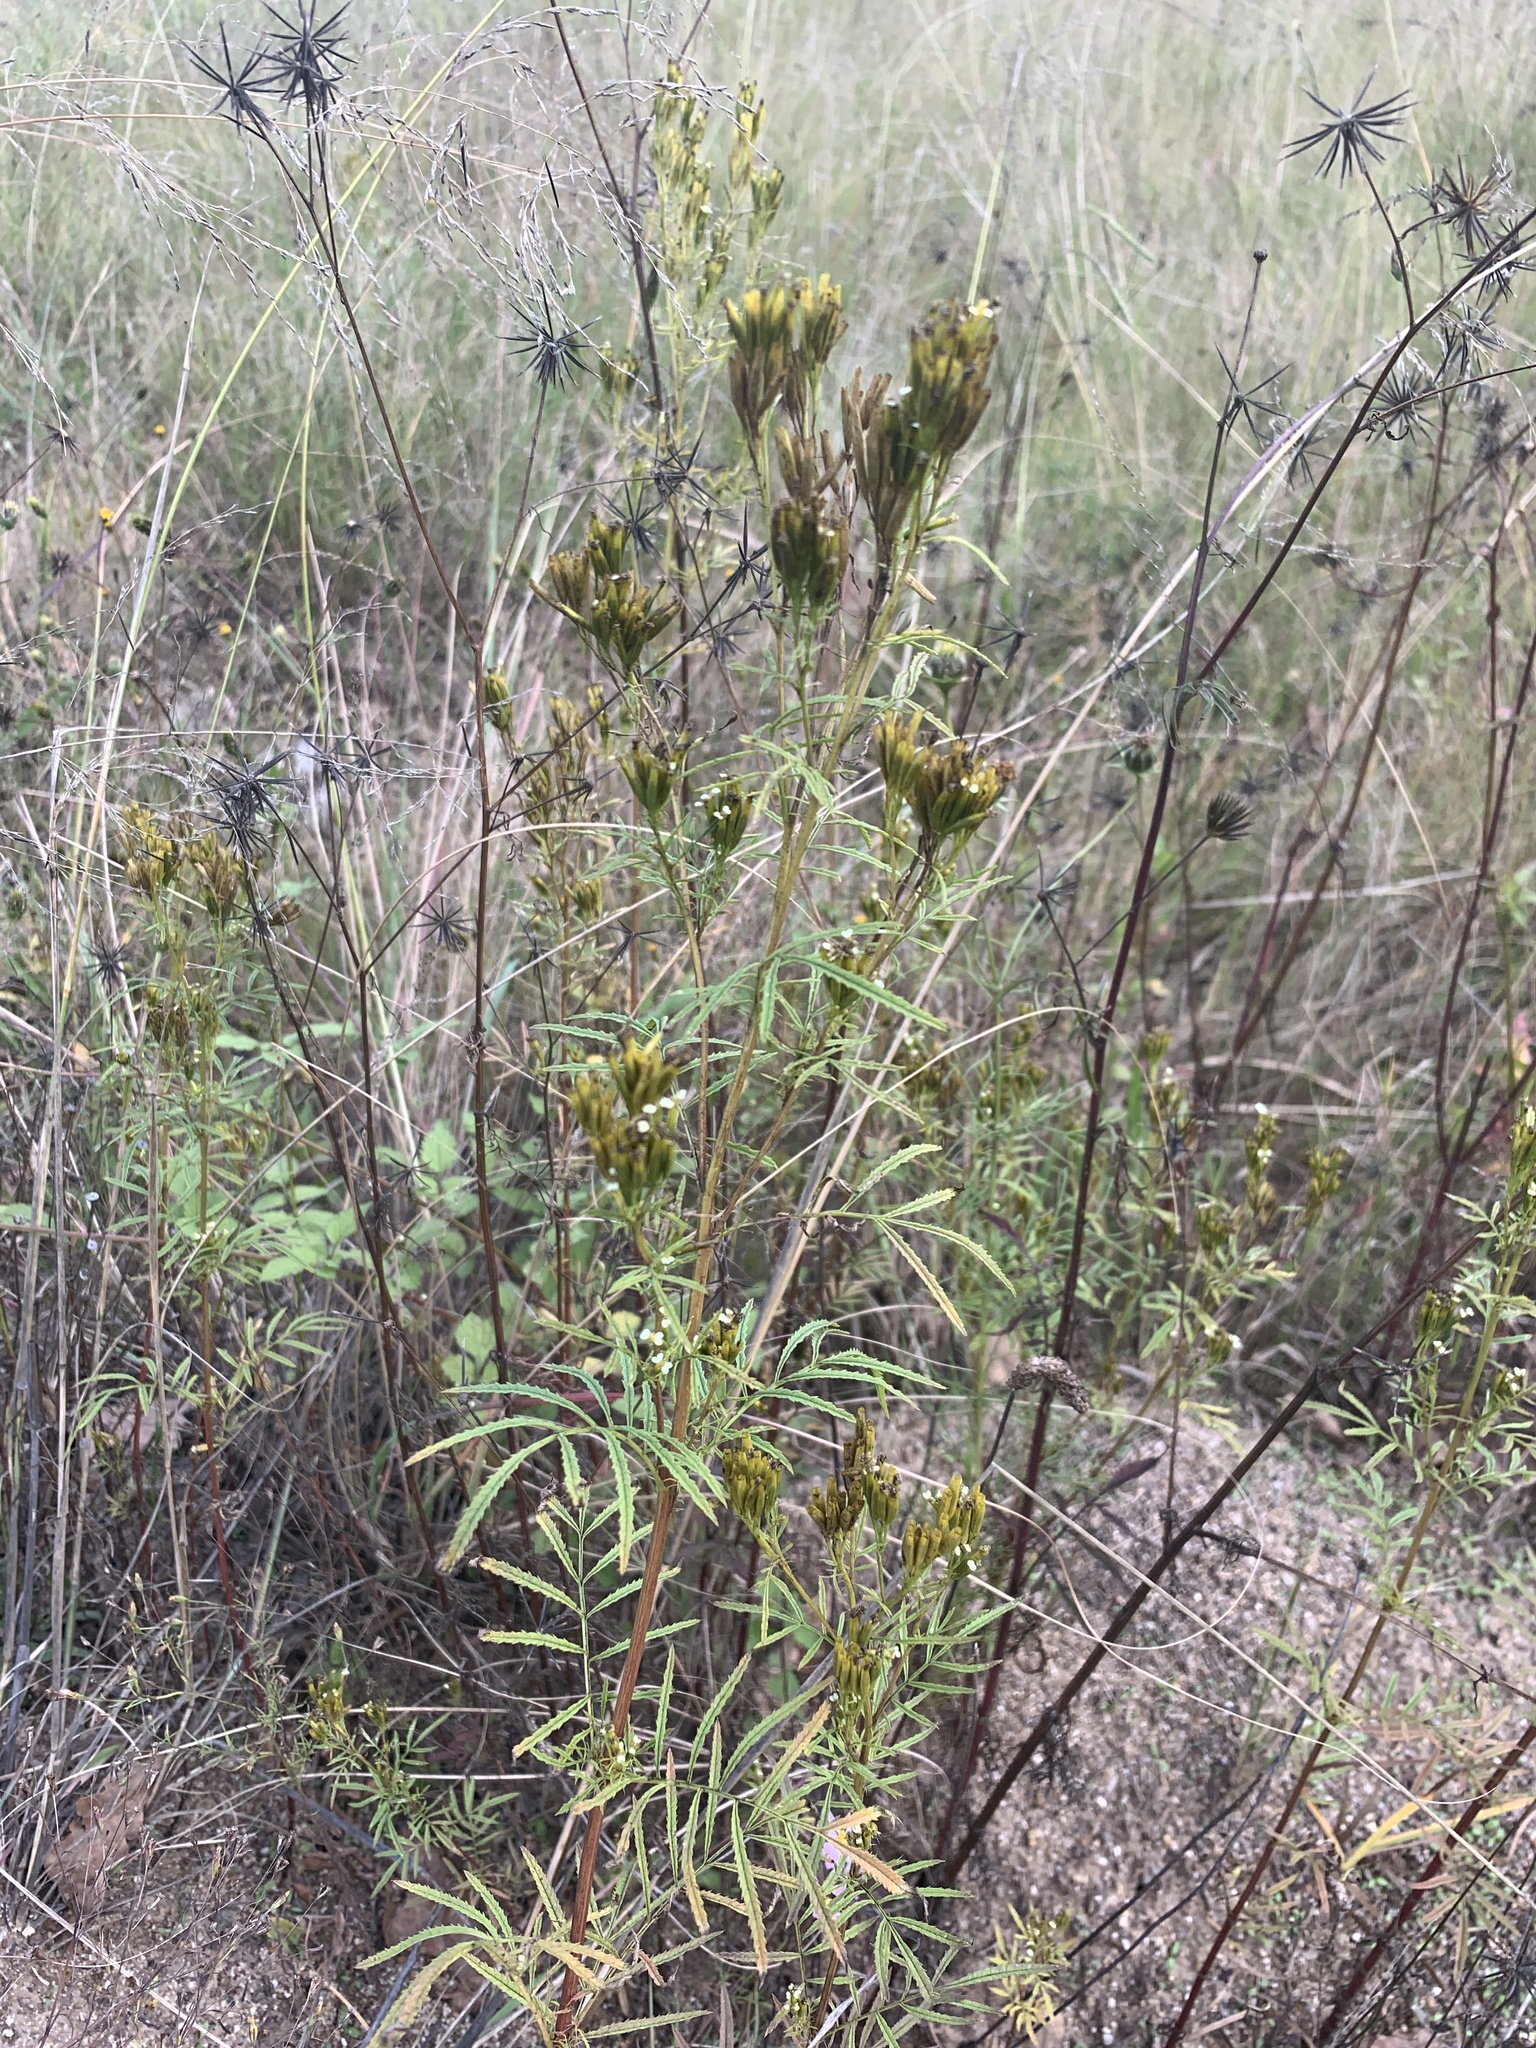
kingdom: Plantae
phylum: Tracheophyta
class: Magnoliopsida
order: Asterales
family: Asteraceae
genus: Tagetes
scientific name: Tagetes minuta
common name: Muster john henry
